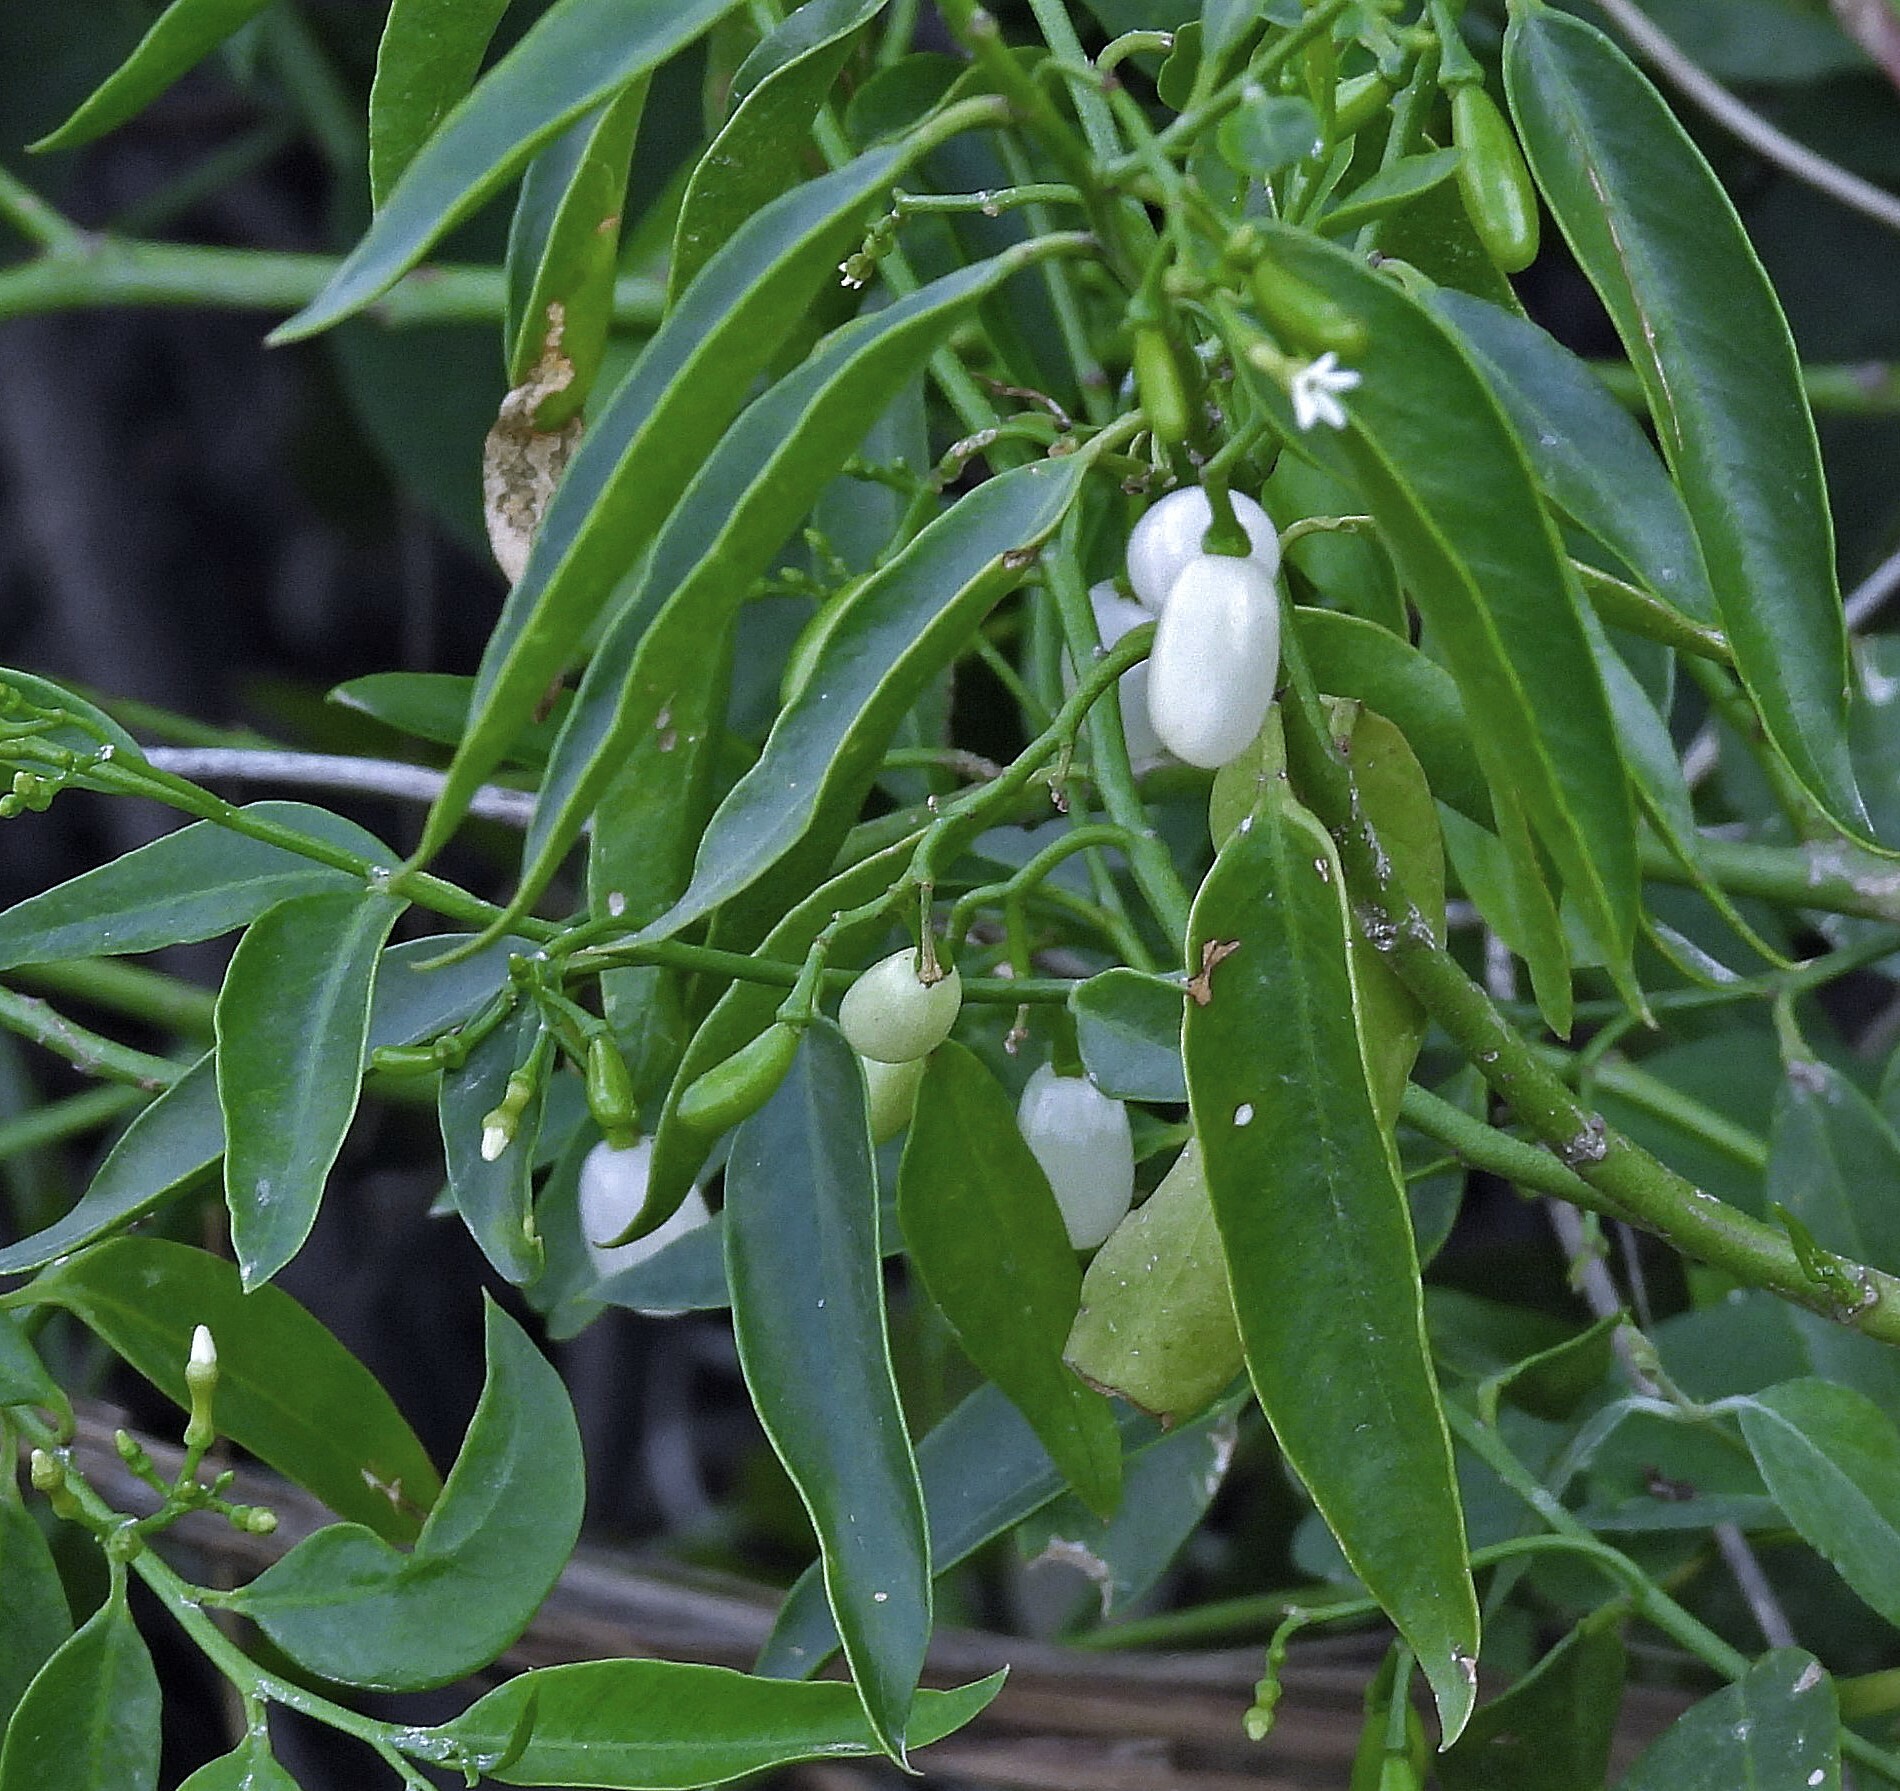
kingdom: Plantae
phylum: Tracheophyta
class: Magnoliopsida
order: Gentianales
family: Apocynaceae
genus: Vallesia
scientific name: Vallesia glabra
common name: Pearlberry
